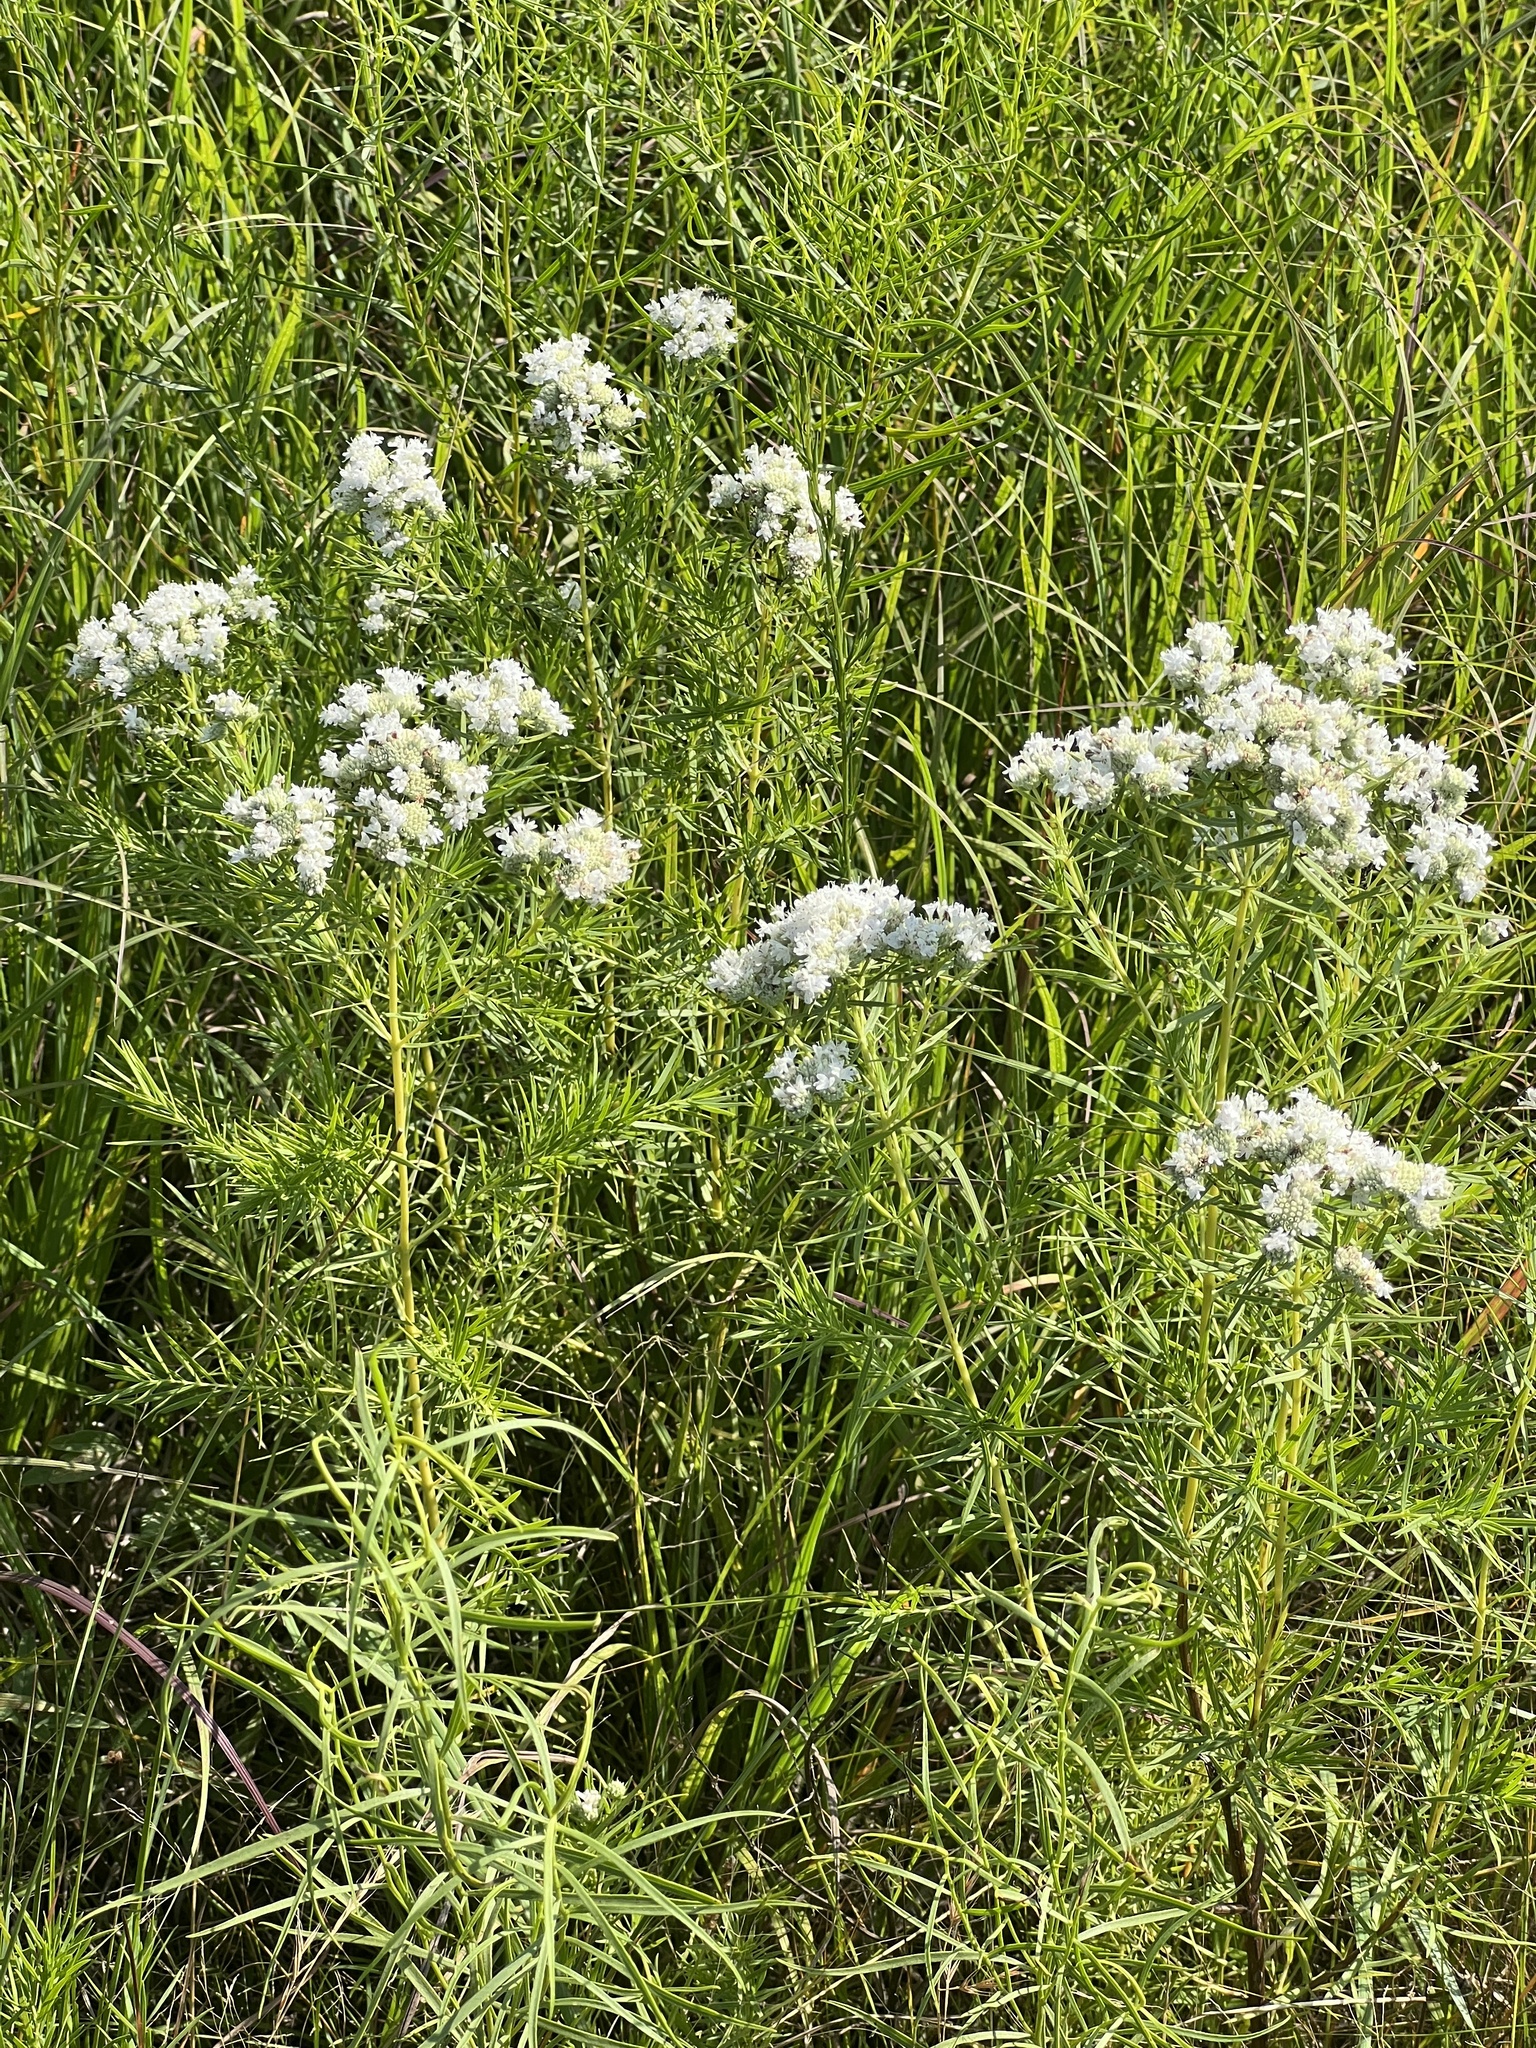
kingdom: Plantae
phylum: Tracheophyta
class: Magnoliopsida
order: Lamiales
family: Lamiaceae
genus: Pycnanthemum
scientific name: Pycnanthemum tenuifolium
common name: Narrow-leaf mountain-mint
